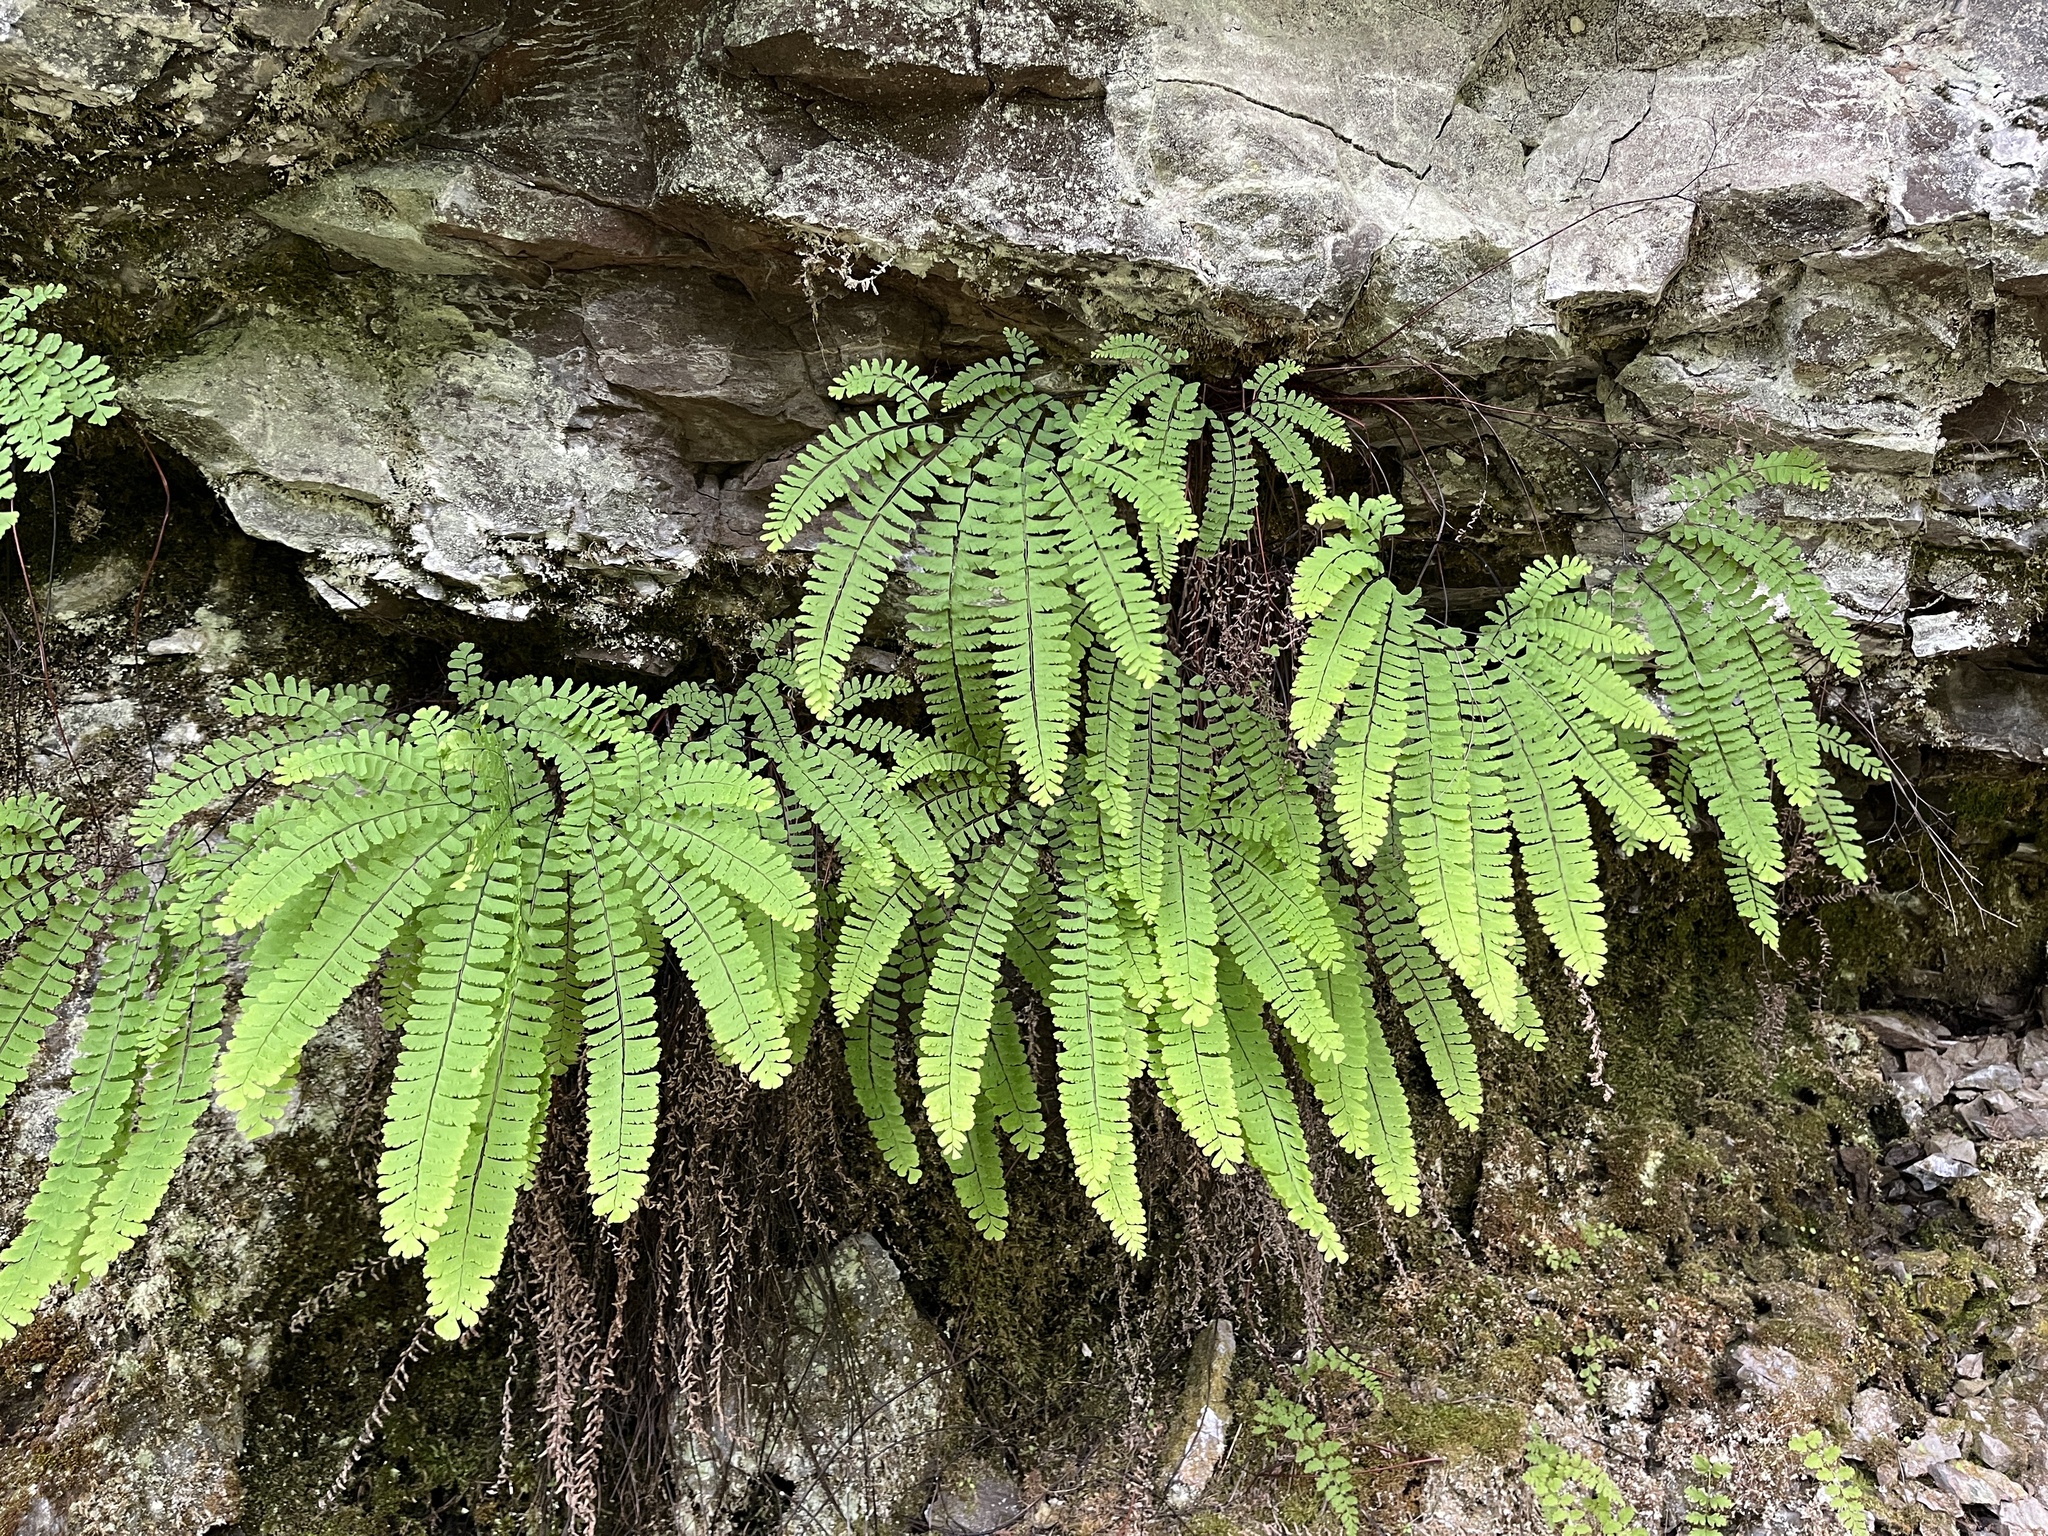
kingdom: Plantae
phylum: Tracheophyta
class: Polypodiopsida
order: Polypodiales
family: Pteridaceae
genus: Adiantum
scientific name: Adiantum aleuticum
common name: Aleutian maidenhair fern
